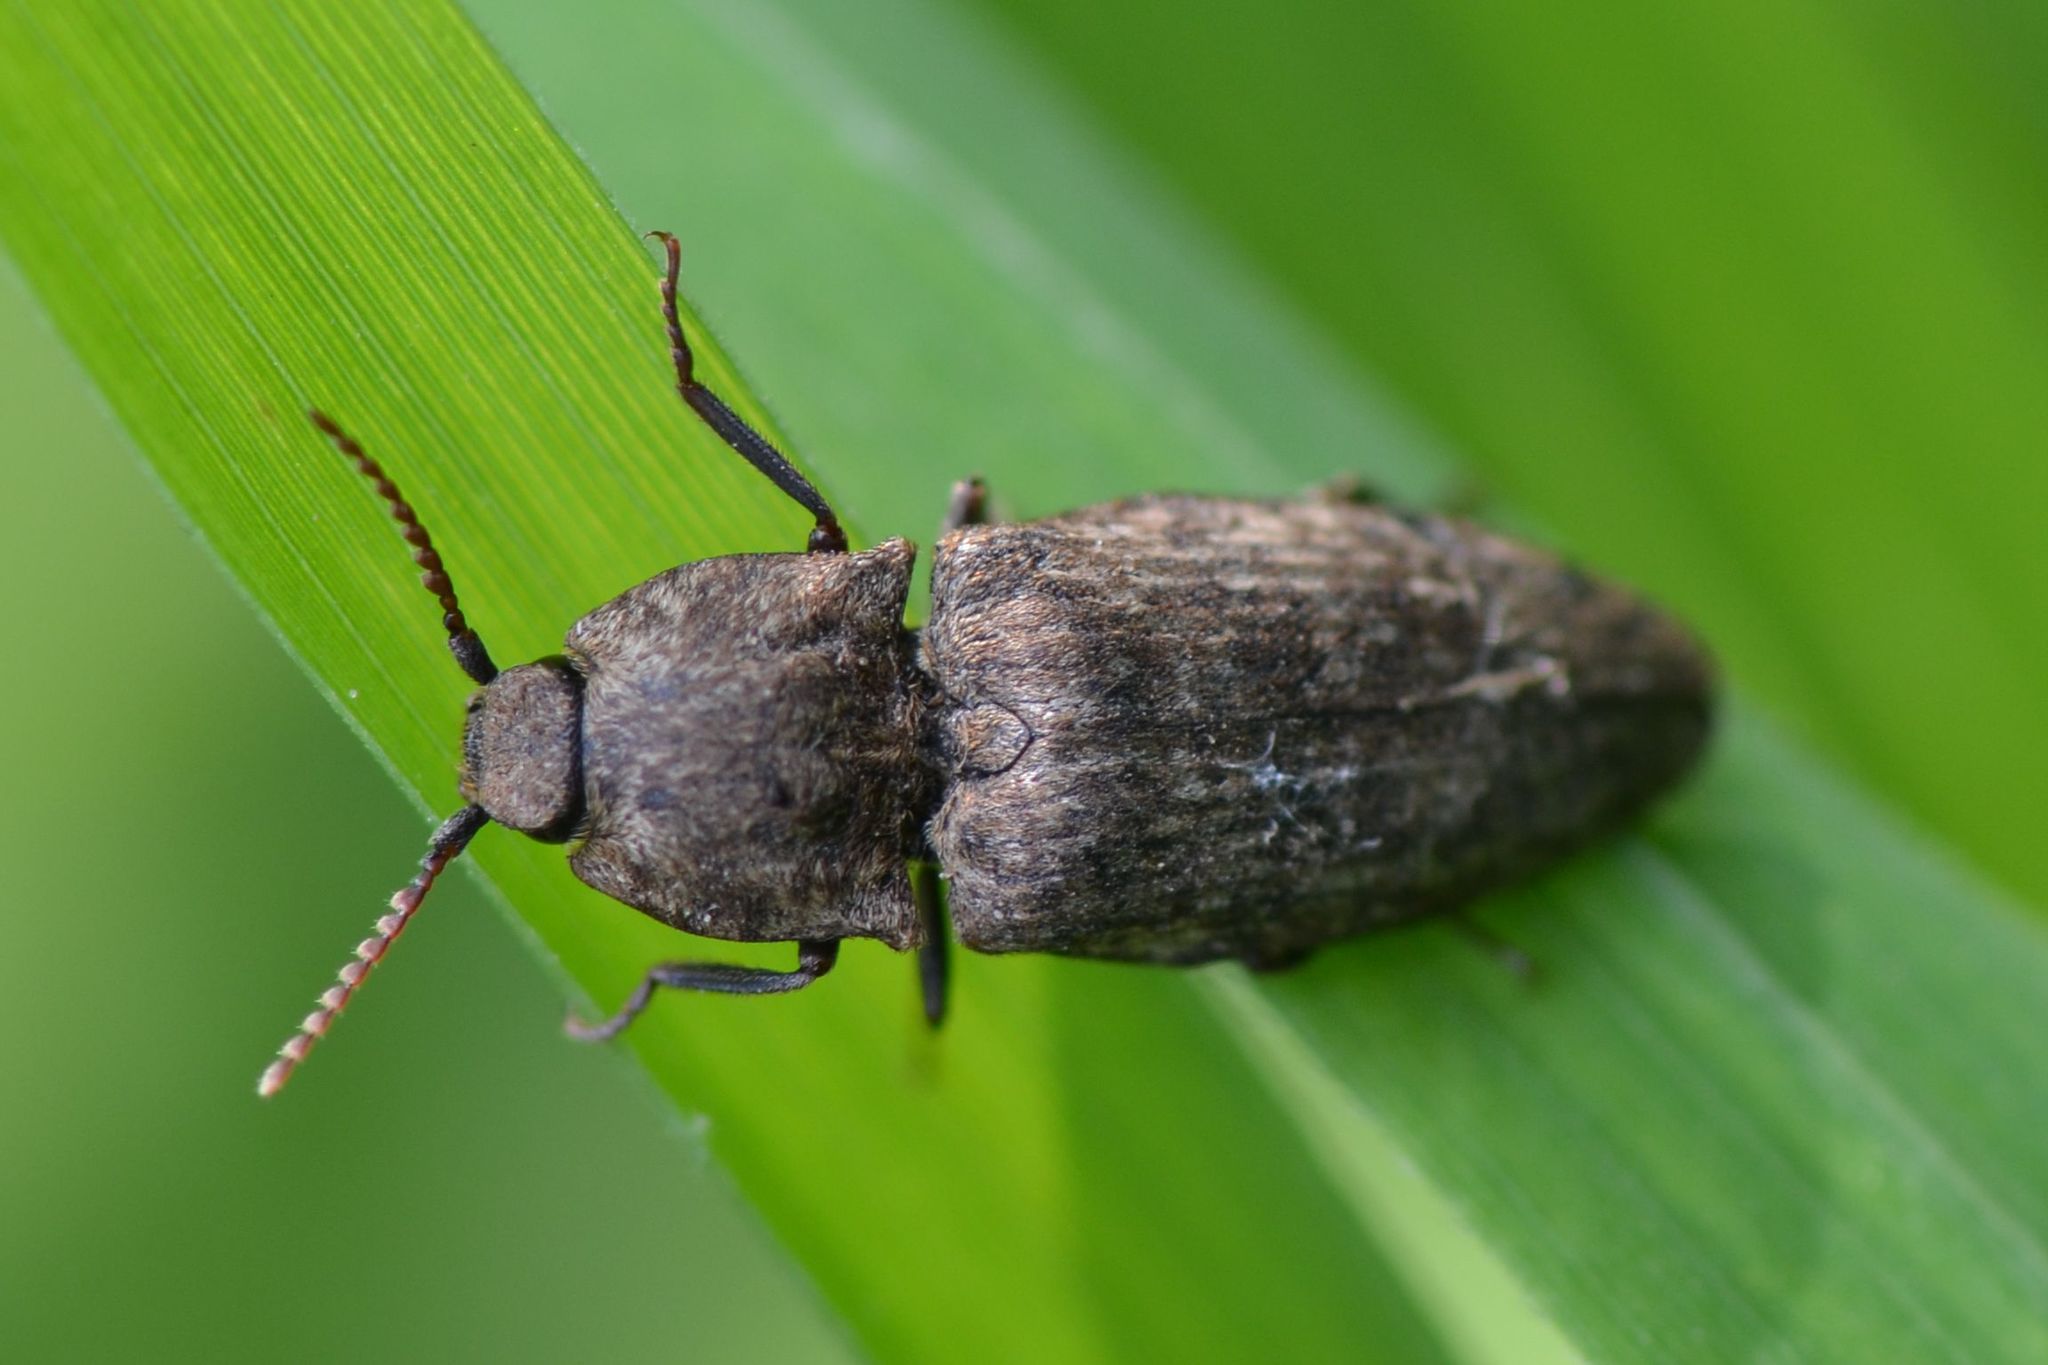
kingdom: Animalia
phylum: Arthropoda
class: Insecta
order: Coleoptera
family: Elateridae
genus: Agrypnus
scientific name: Agrypnus murinus
